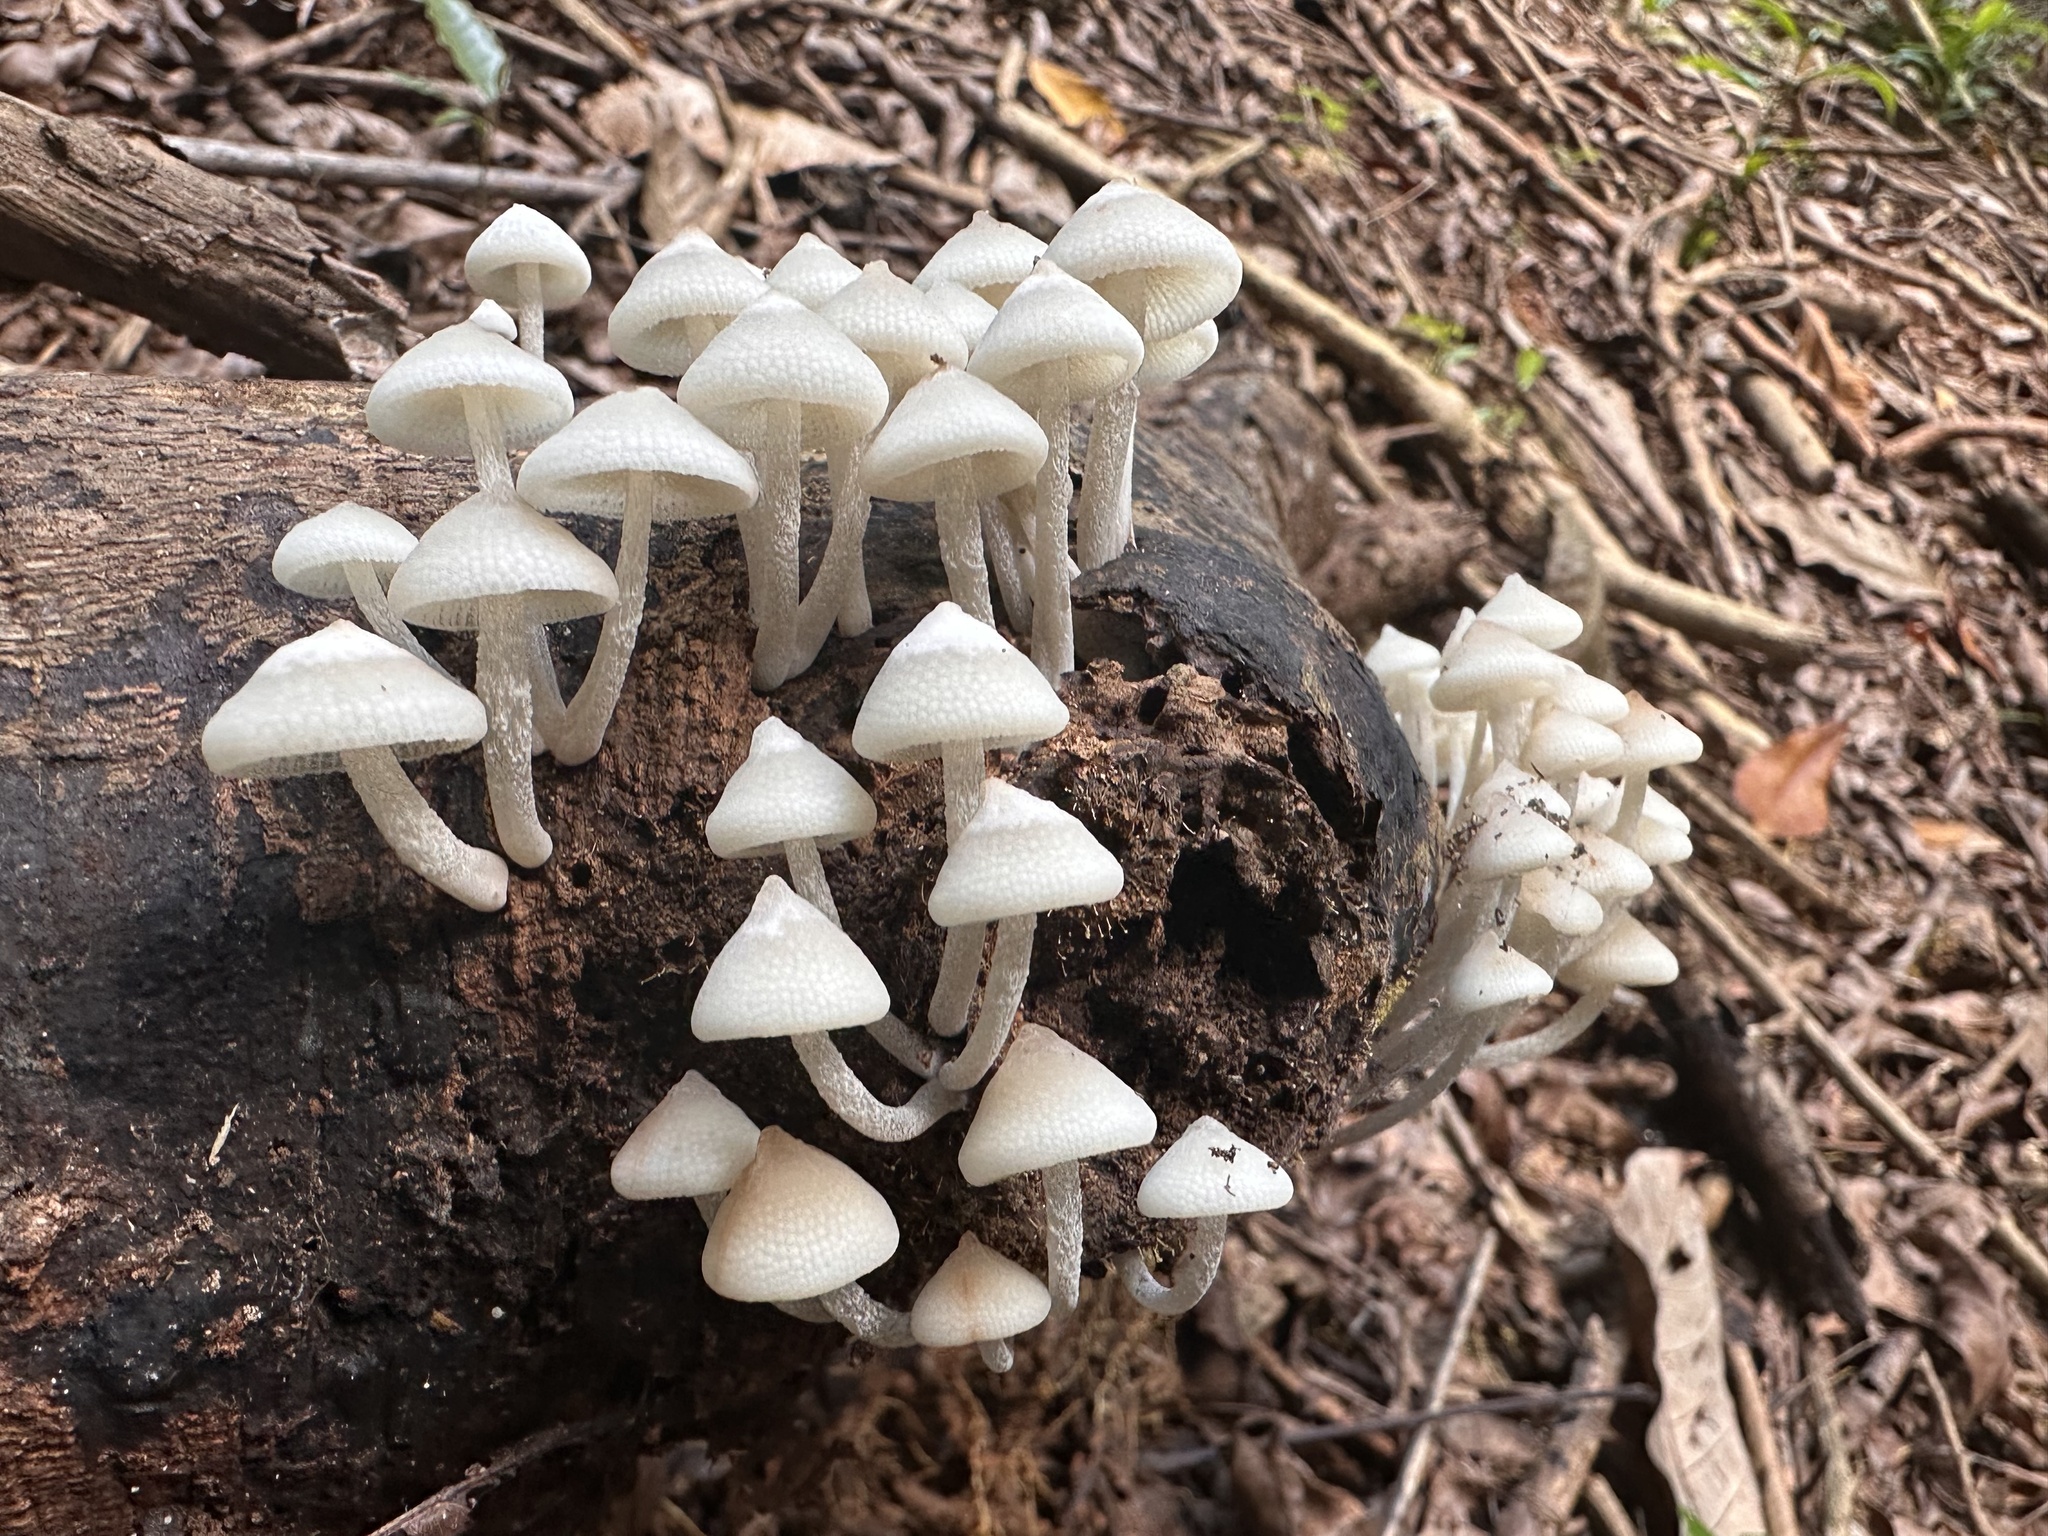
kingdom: Fungi
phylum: Basidiomycota
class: Agaricomycetes
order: Agaricales
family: Mycenaceae
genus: Filoboletus
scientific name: Filoboletus manipularis
